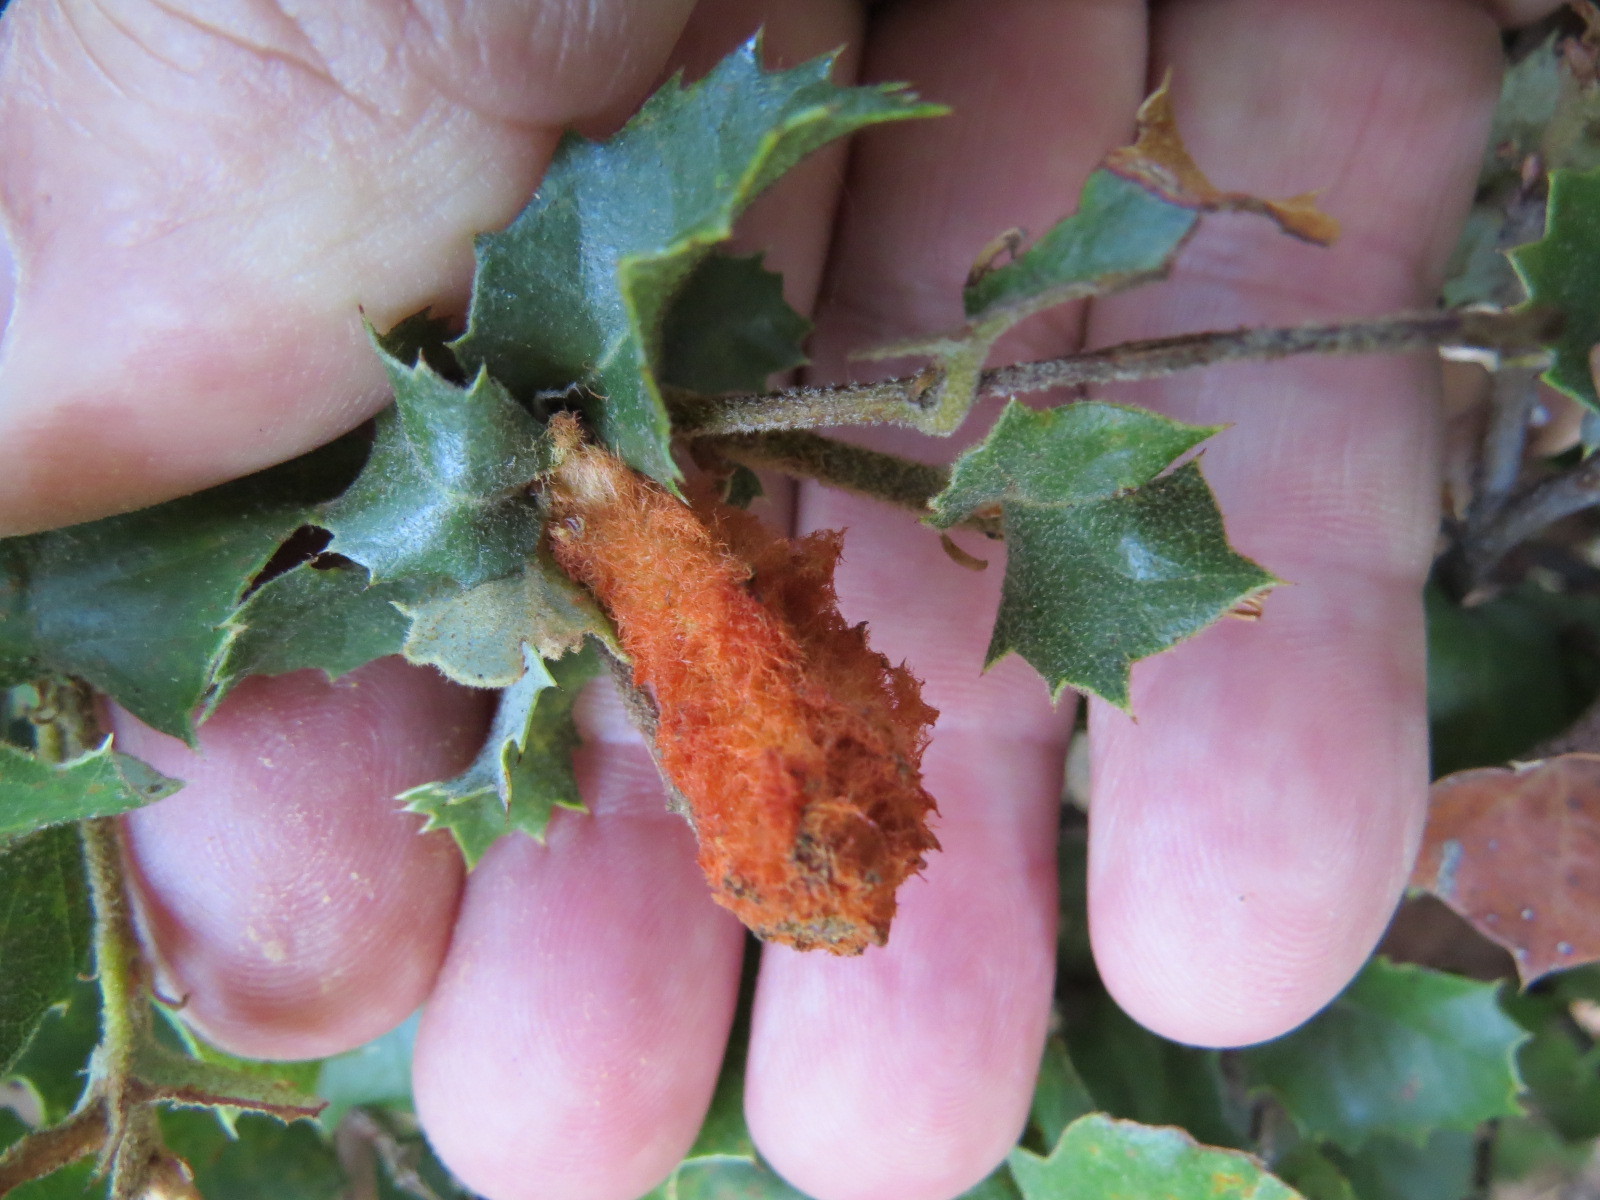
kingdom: Animalia
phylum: Arthropoda
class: Insecta
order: Hymenoptera
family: Cynipidae
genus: Heteroecus
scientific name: Heteroecus
